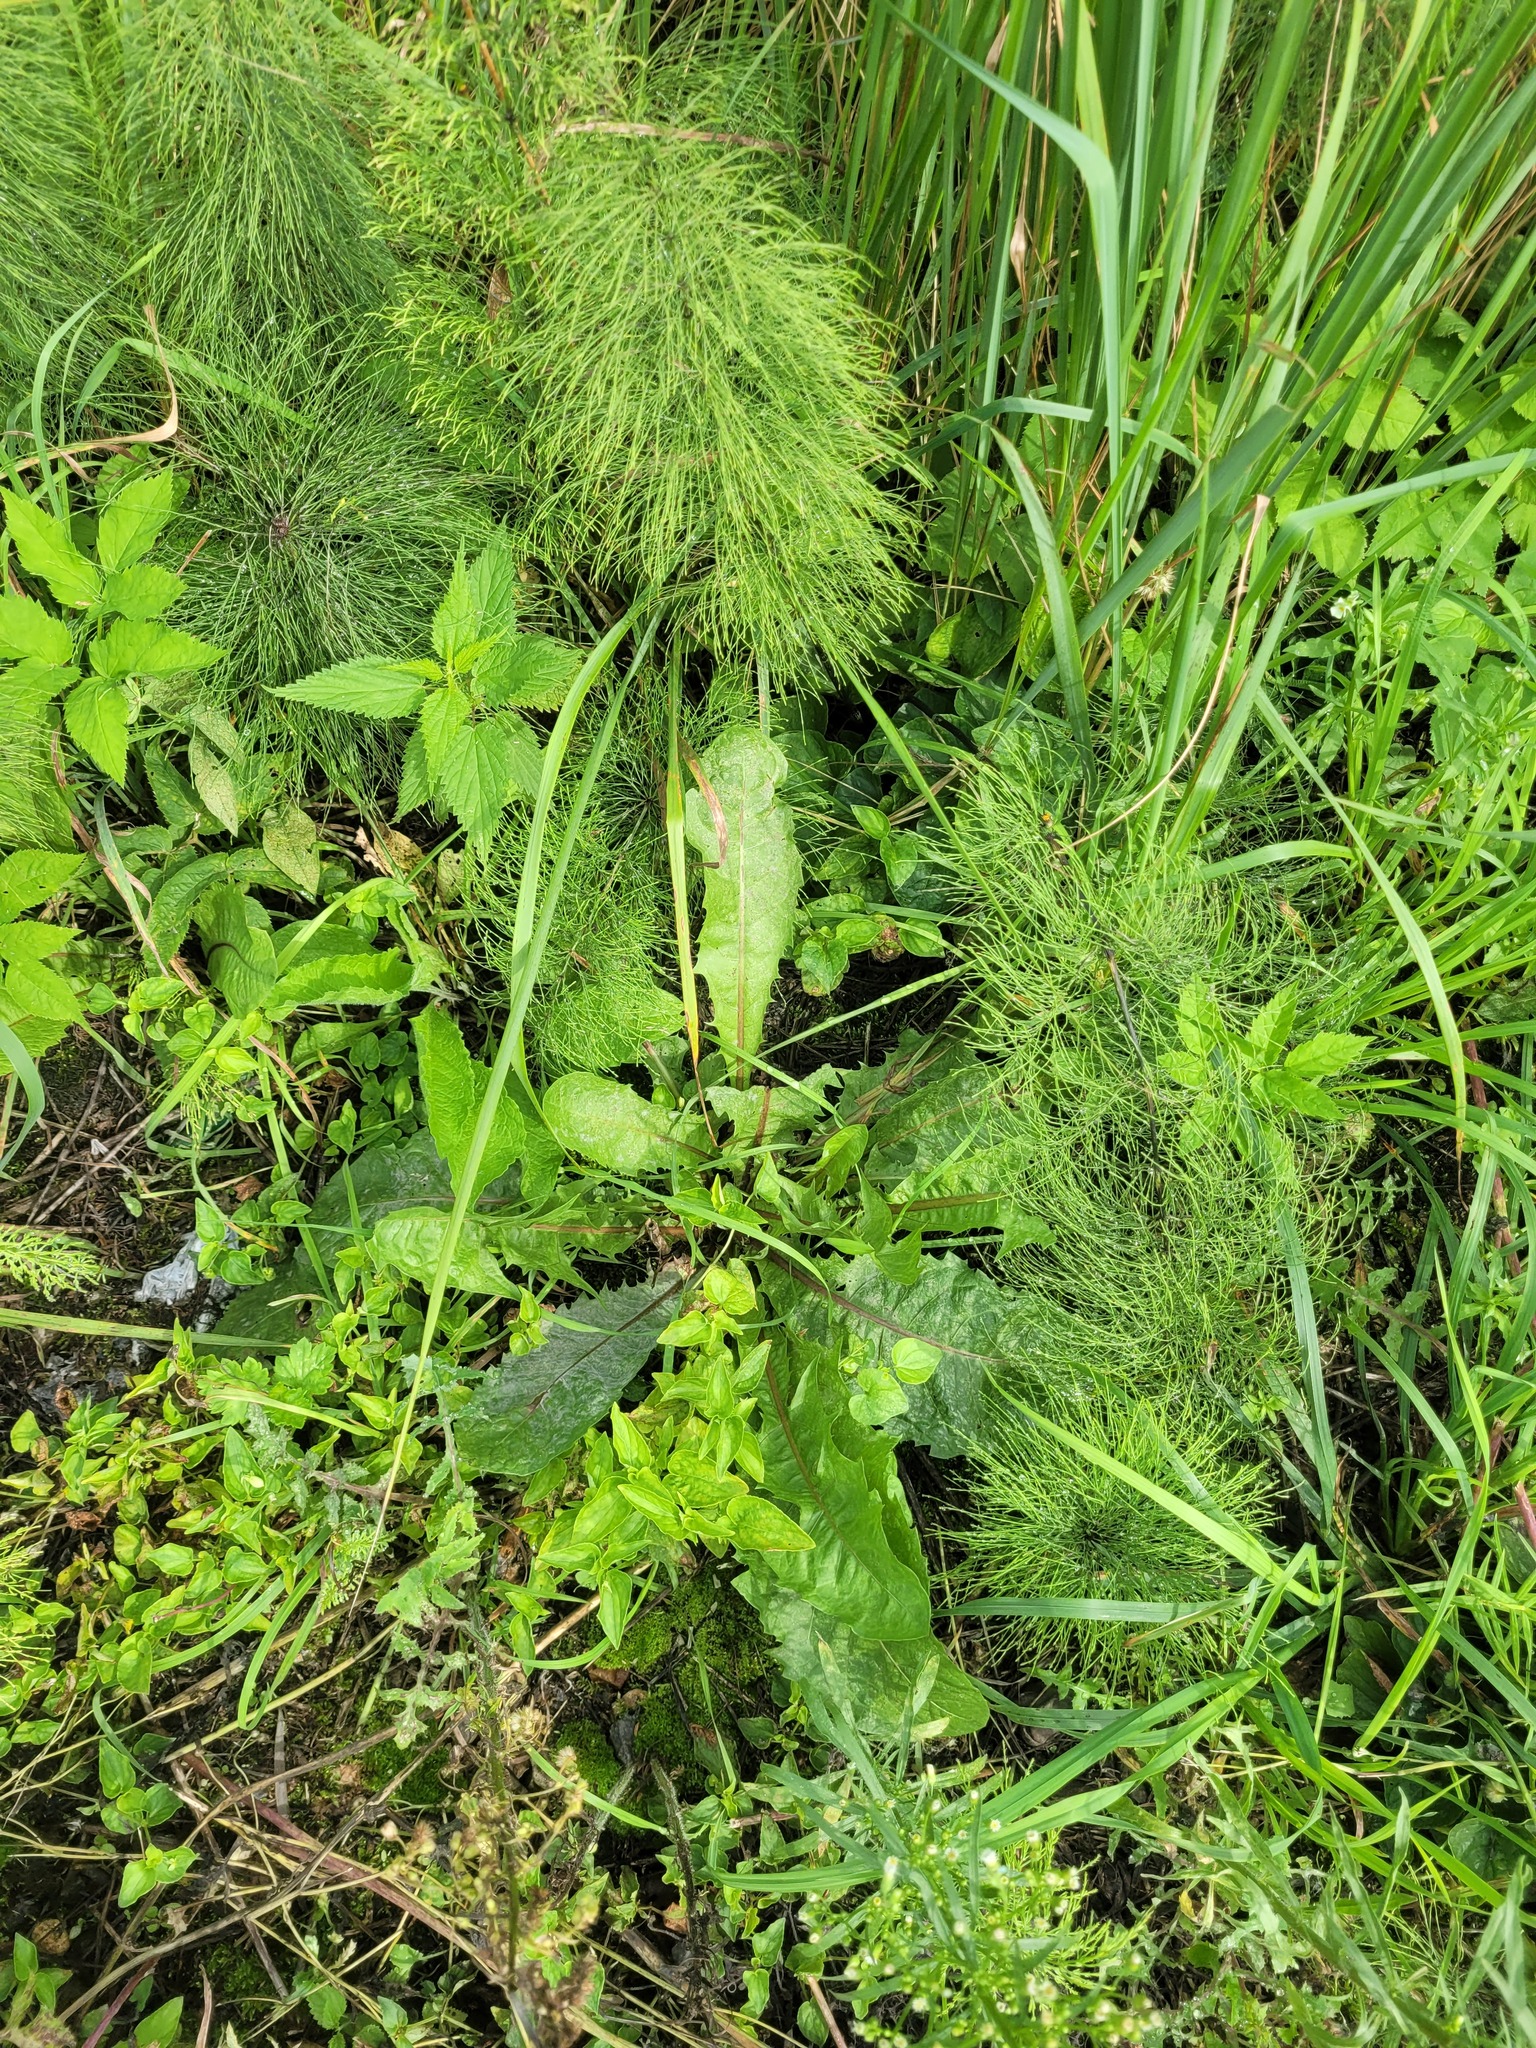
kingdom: Plantae
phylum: Tracheophyta
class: Magnoliopsida
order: Asterales
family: Asteraceae
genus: Taraxacum
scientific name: Taraxacum officinale
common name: Common dandelion
